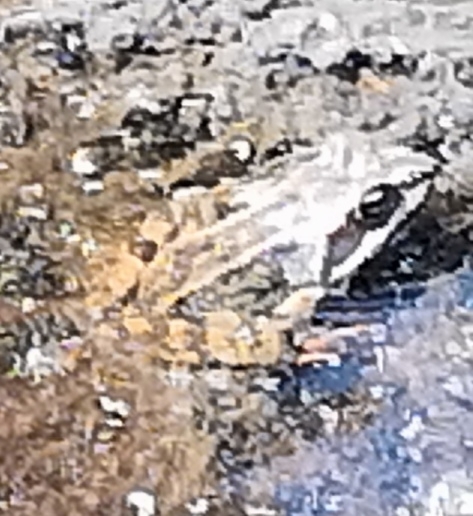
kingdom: Animalia
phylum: Chordata
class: Amphibia
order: Anura
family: Ranidae
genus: Rana
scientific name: Rana temporaria
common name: Common frog
